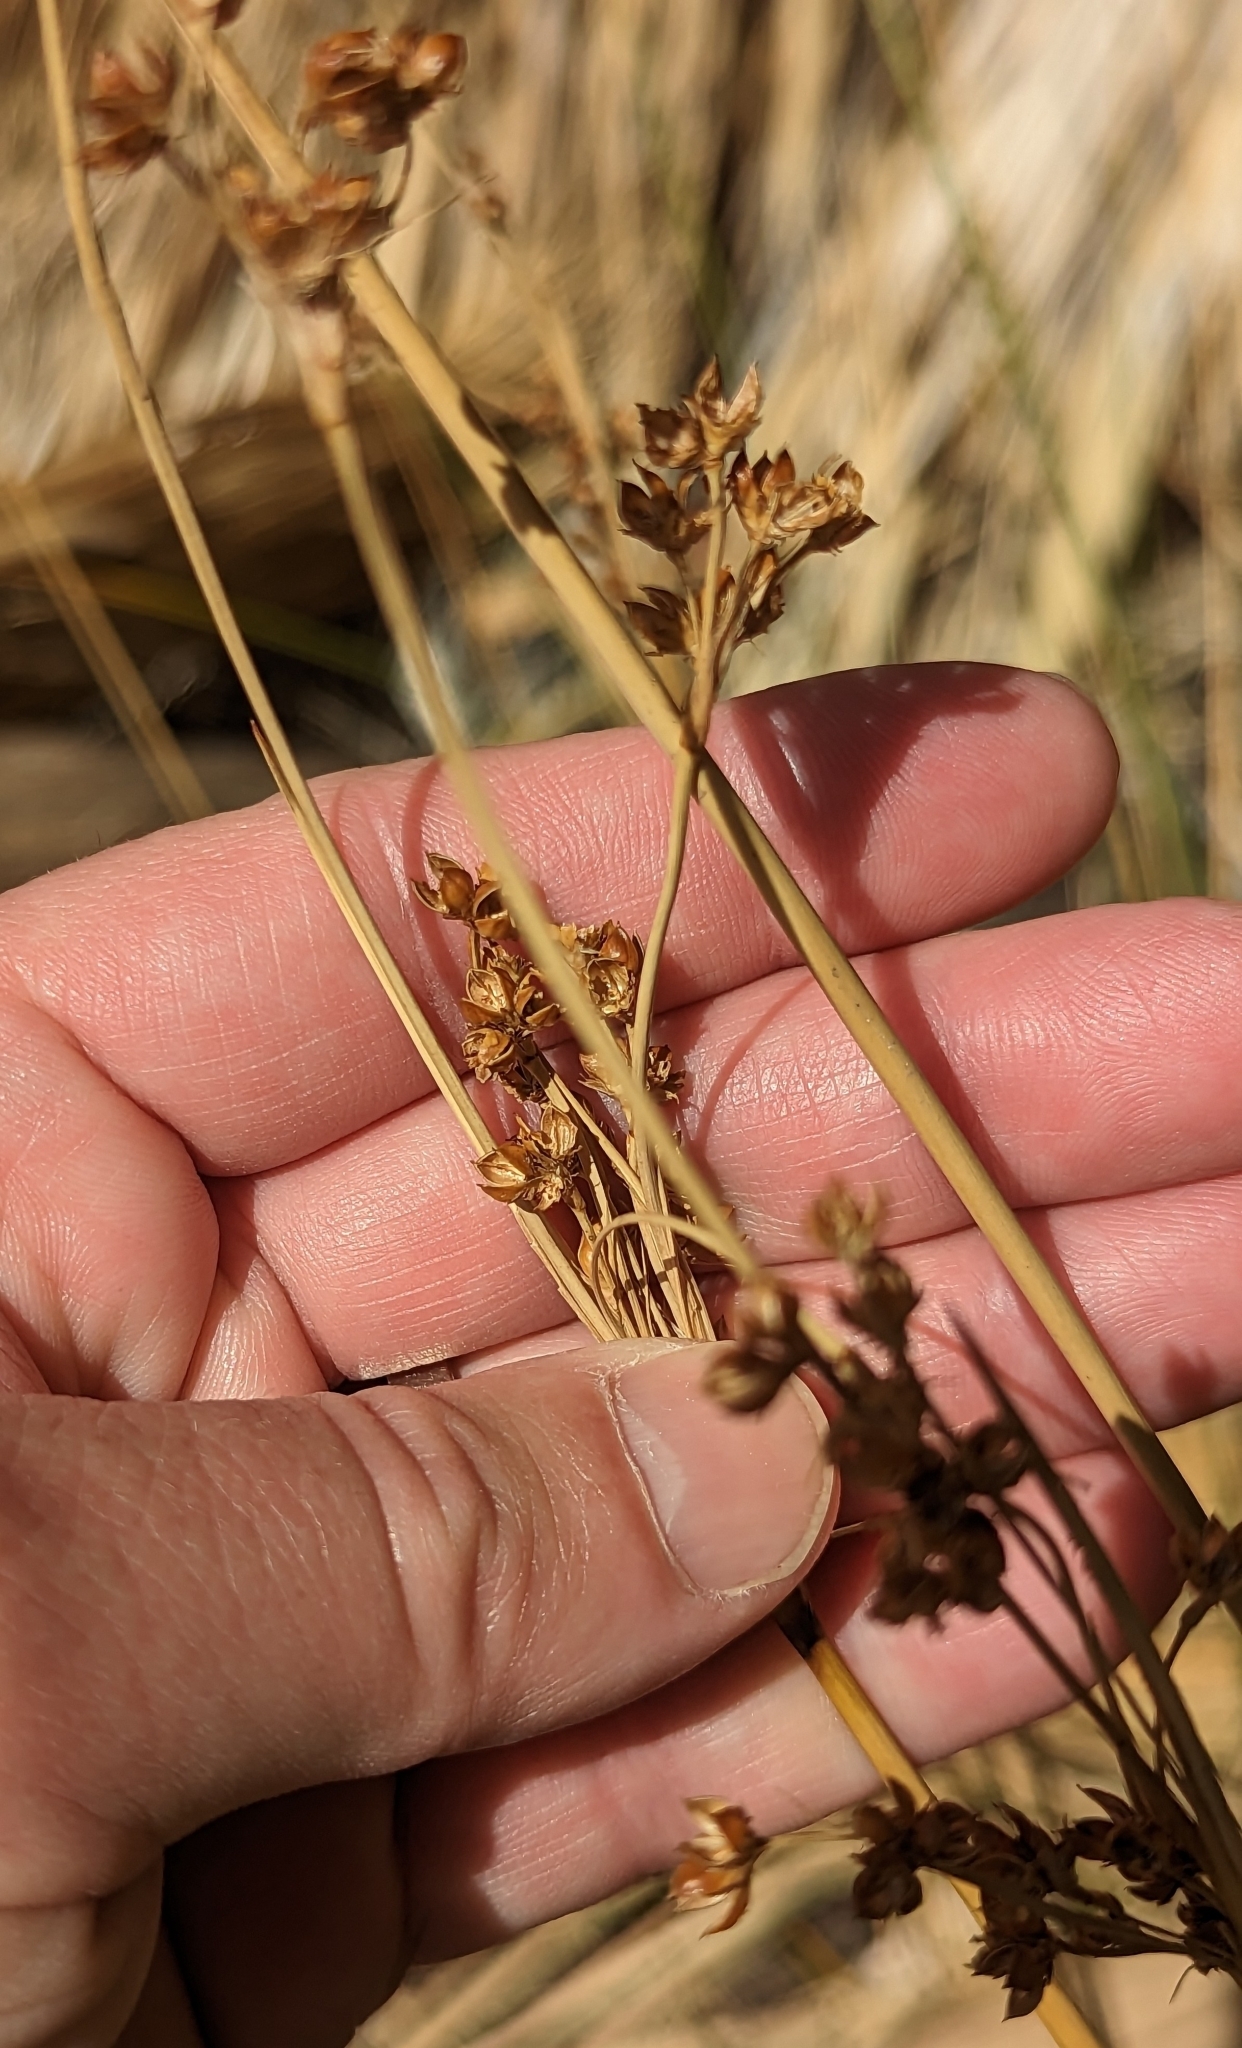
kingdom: Plantae
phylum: Tracheophyta
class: Liliopsida
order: Poales
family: Juncaceae
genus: Juncus
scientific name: Juncus acutus
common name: Sharp rush
